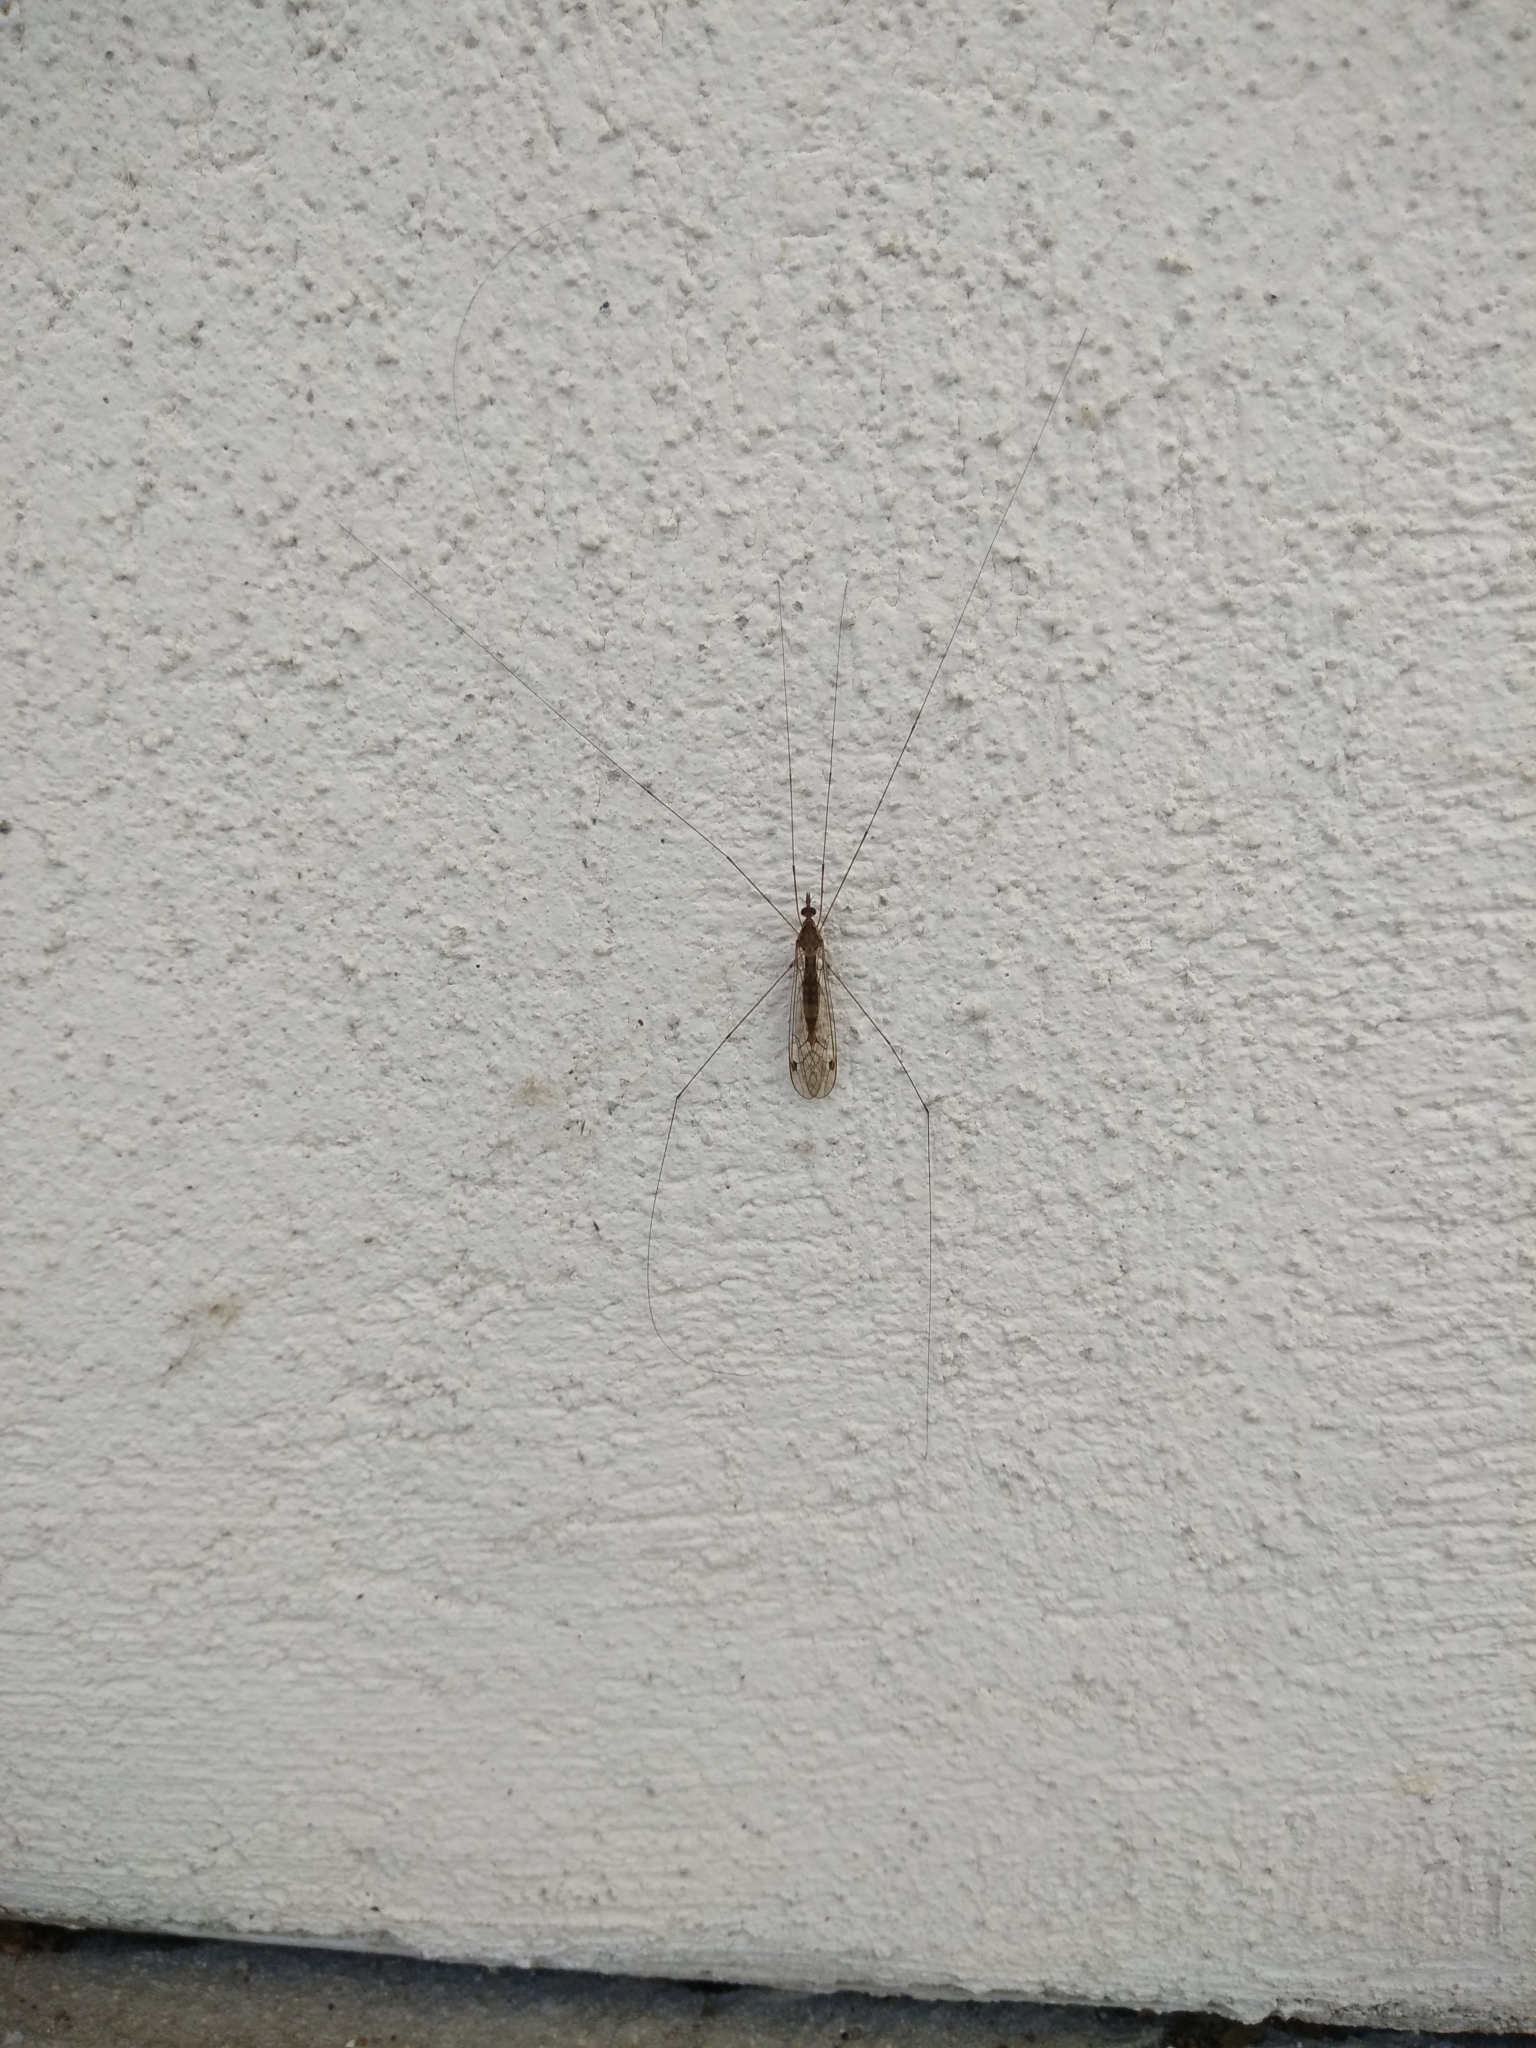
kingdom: Animalia
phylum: Arthropoda
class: Insecta
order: Diptera
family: Tipulidae
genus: Maekistocera
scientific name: Maekistocera longipennis
